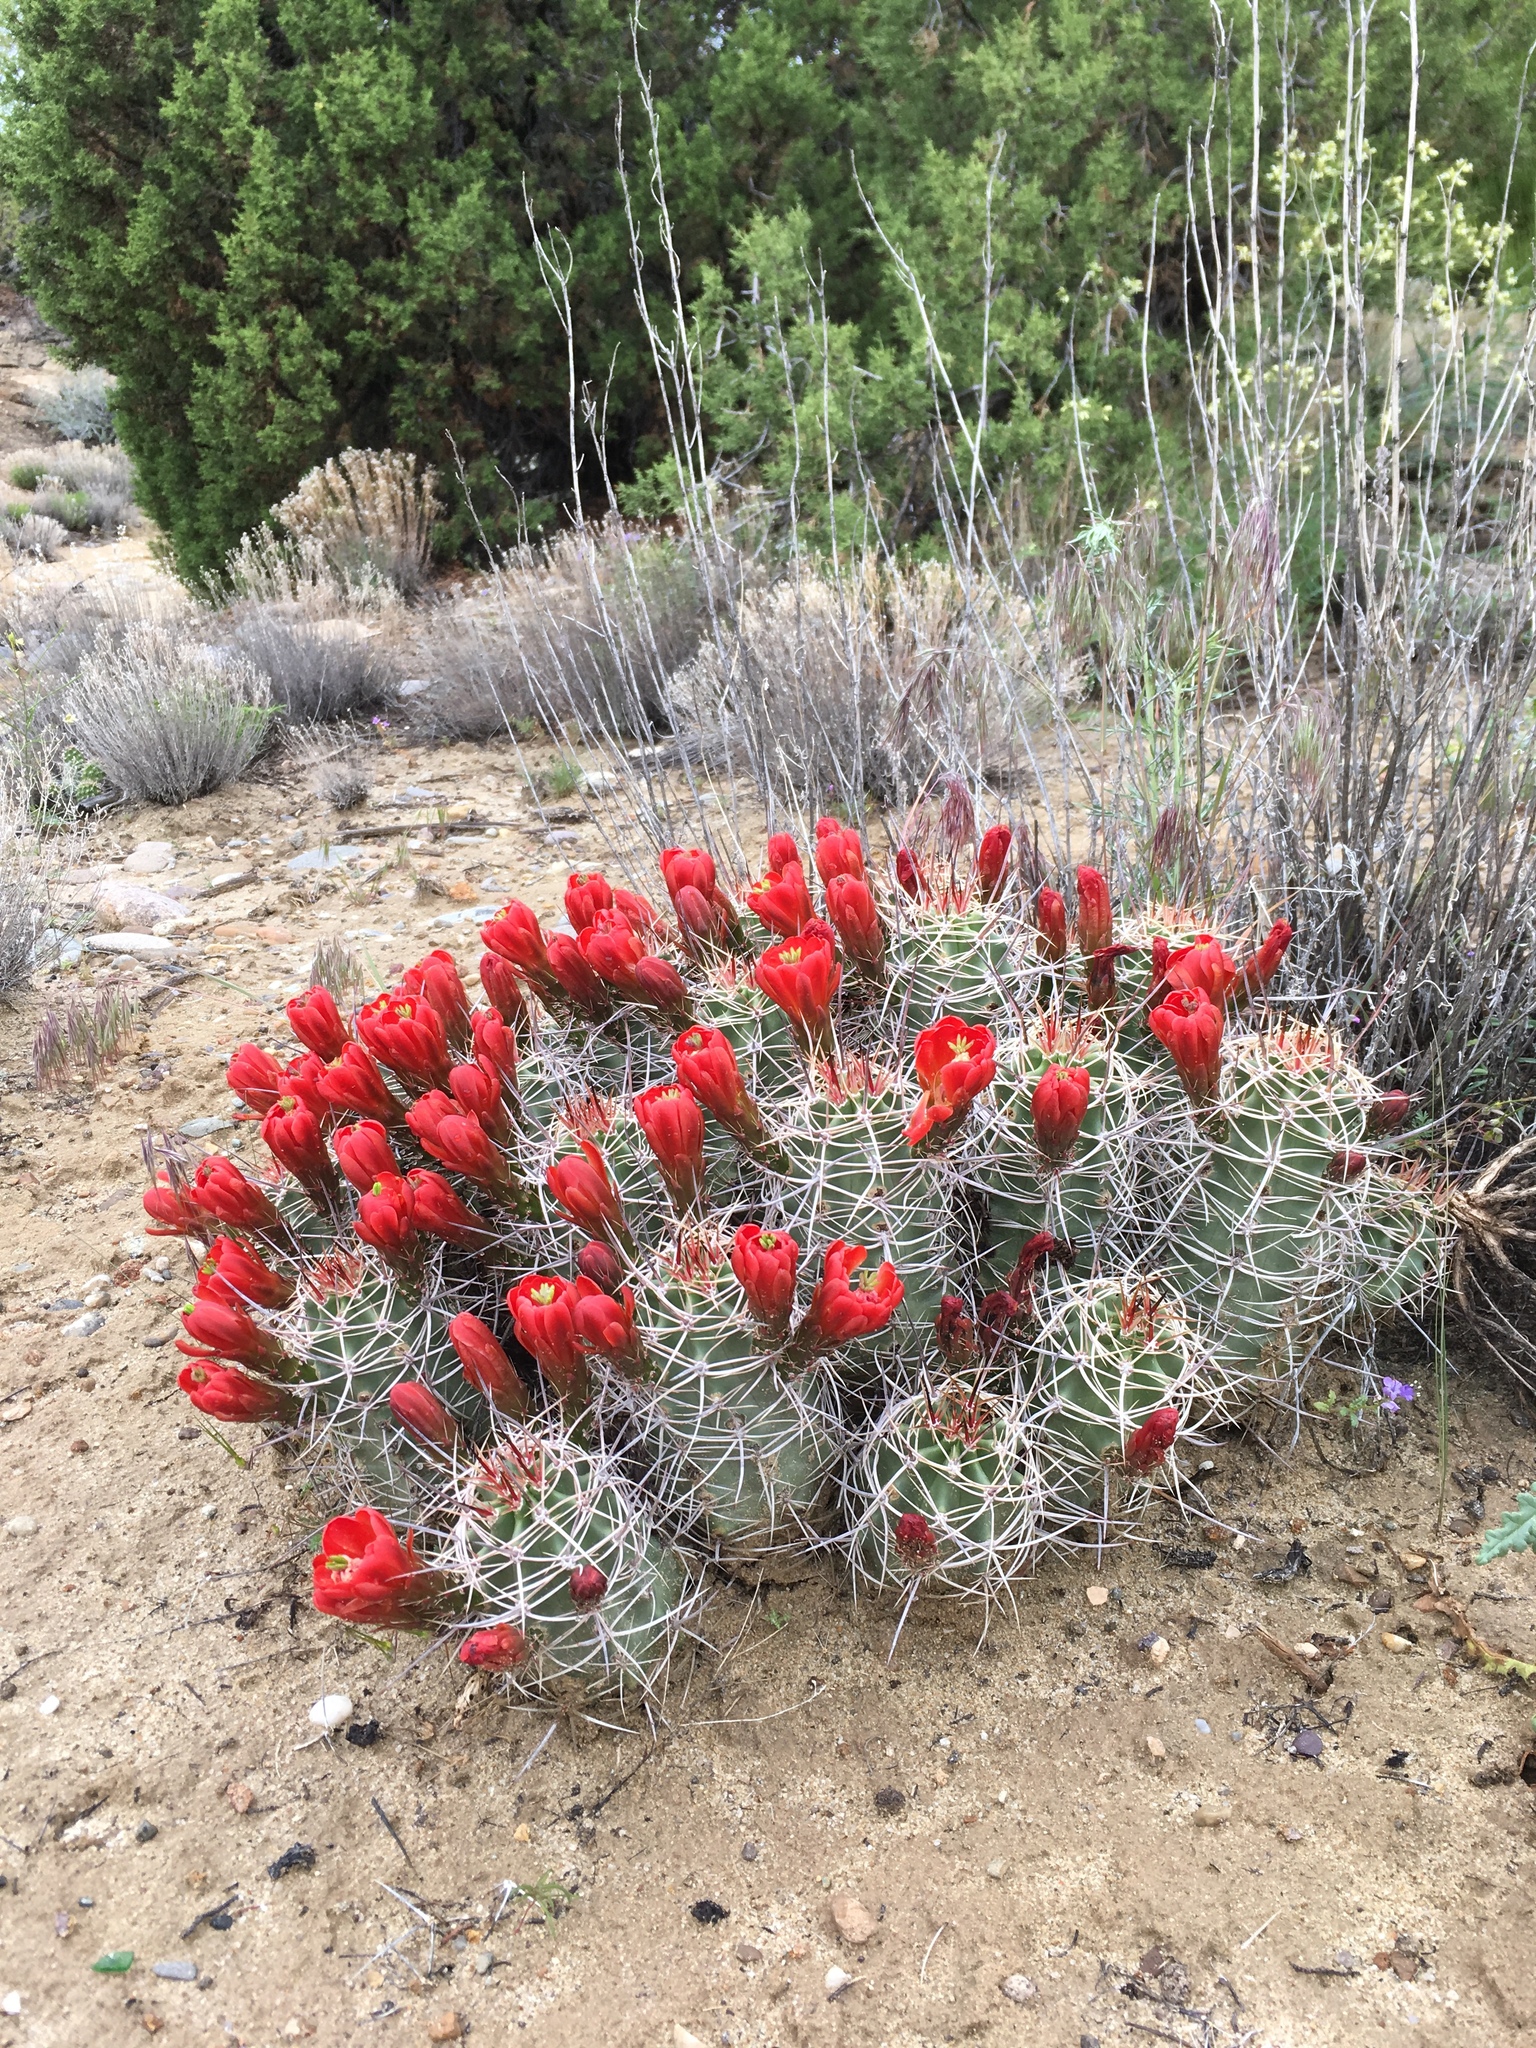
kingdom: Plantae
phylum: Tracheophyta
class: Magnoliopsida
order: Caryophyllales
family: Cactaceae
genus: Echinocereus
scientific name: Echinocereus triglochidiatus
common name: Claretcup hedgehog
